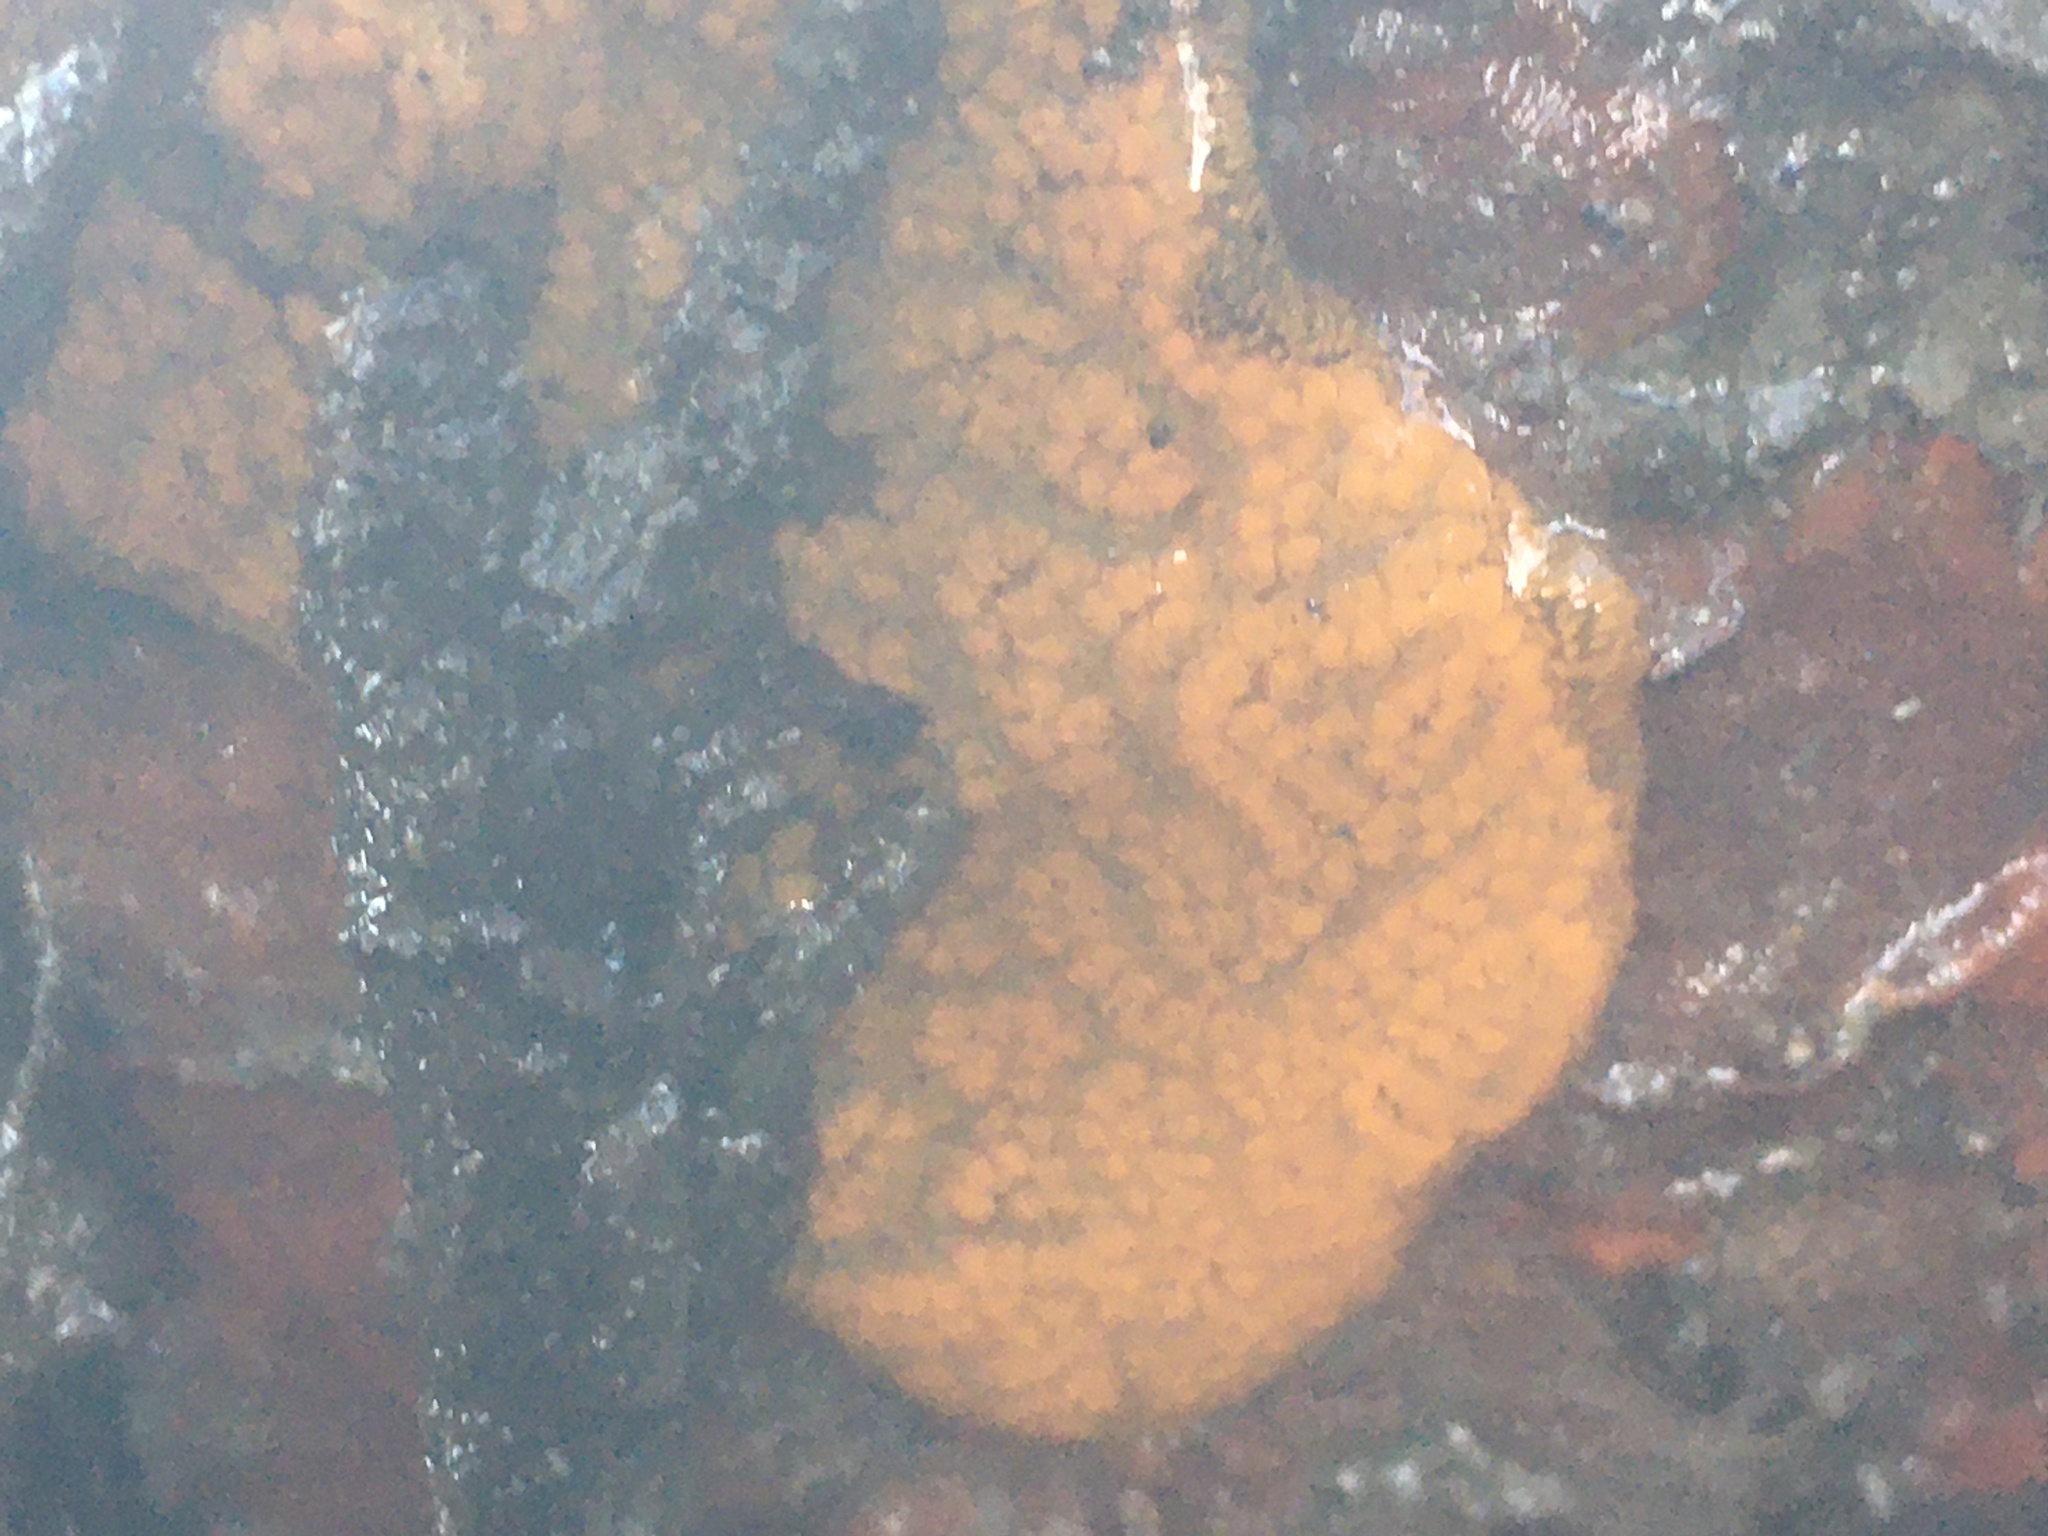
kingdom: Animalia
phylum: Chordata
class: Ascidiacea
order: Stolidobranchia
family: Styelidae
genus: Botrylloides
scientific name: Botrylloides violaceus
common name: Colonial sea squirt
